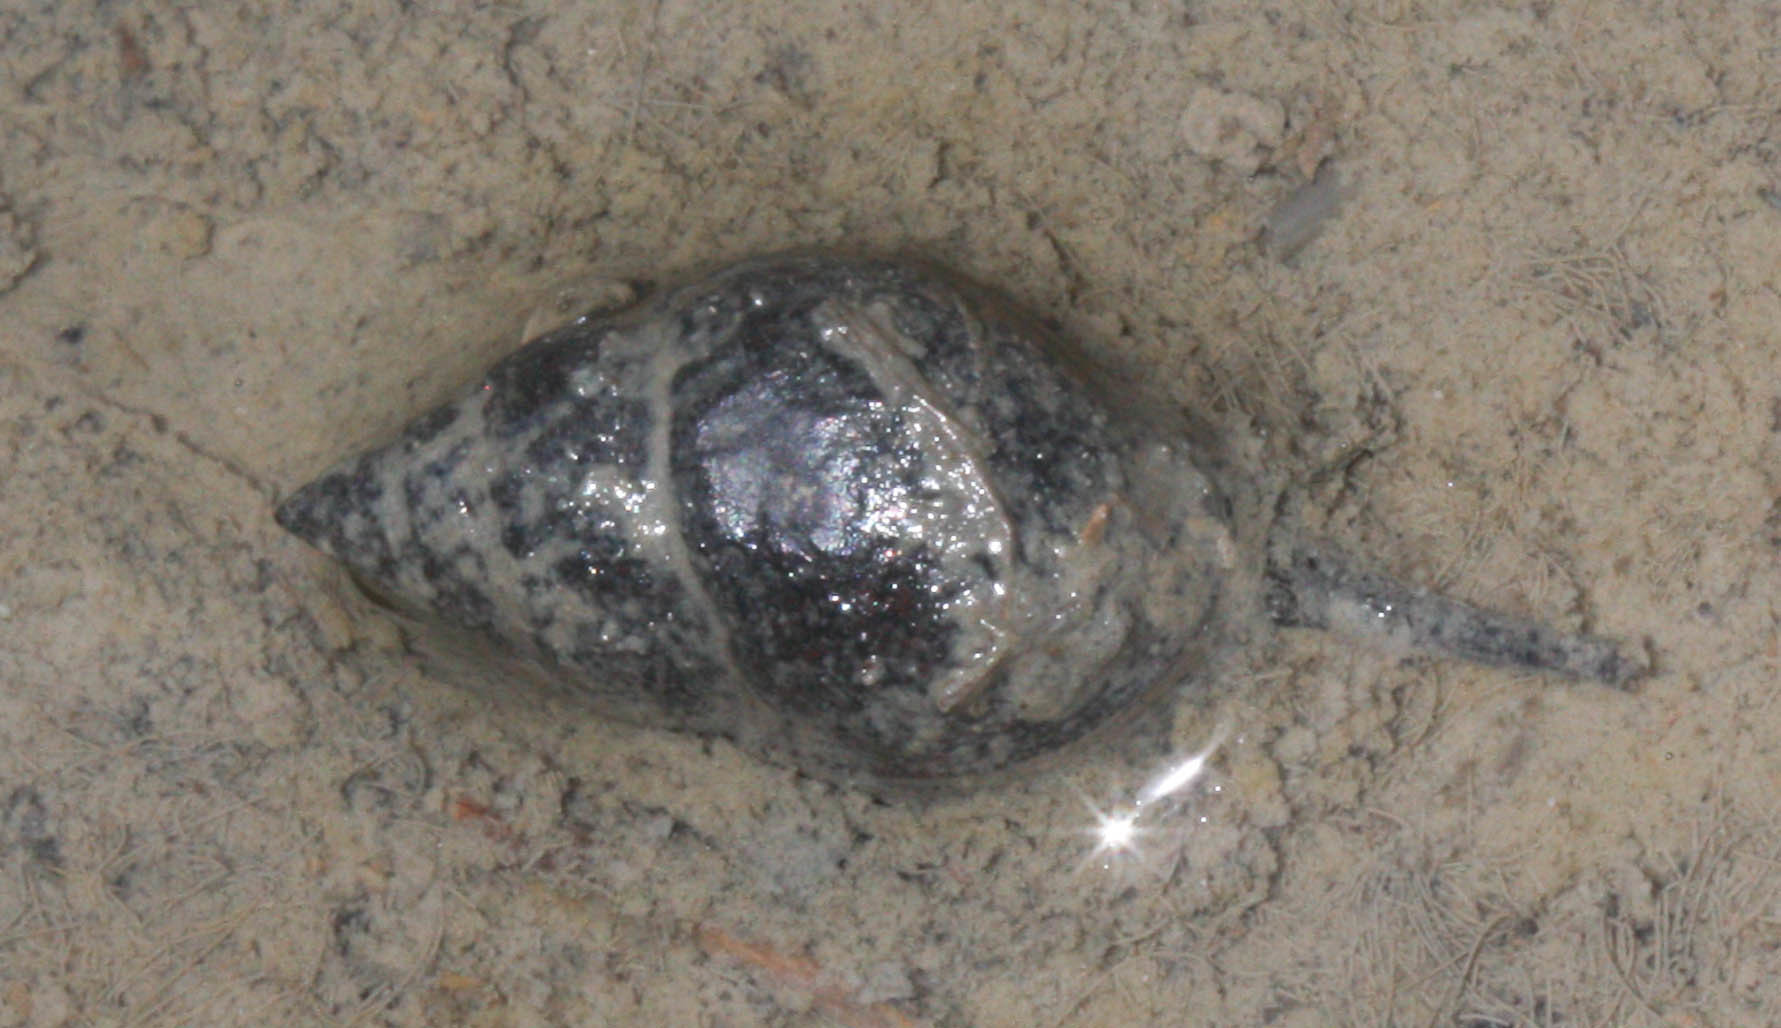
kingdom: Animalia
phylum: Mollusca
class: Gastropoda
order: Neogastropoda
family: Nassariidae
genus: Ilyanassa
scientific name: Ilyanassa obsoleta
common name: Eastern mudsnail
